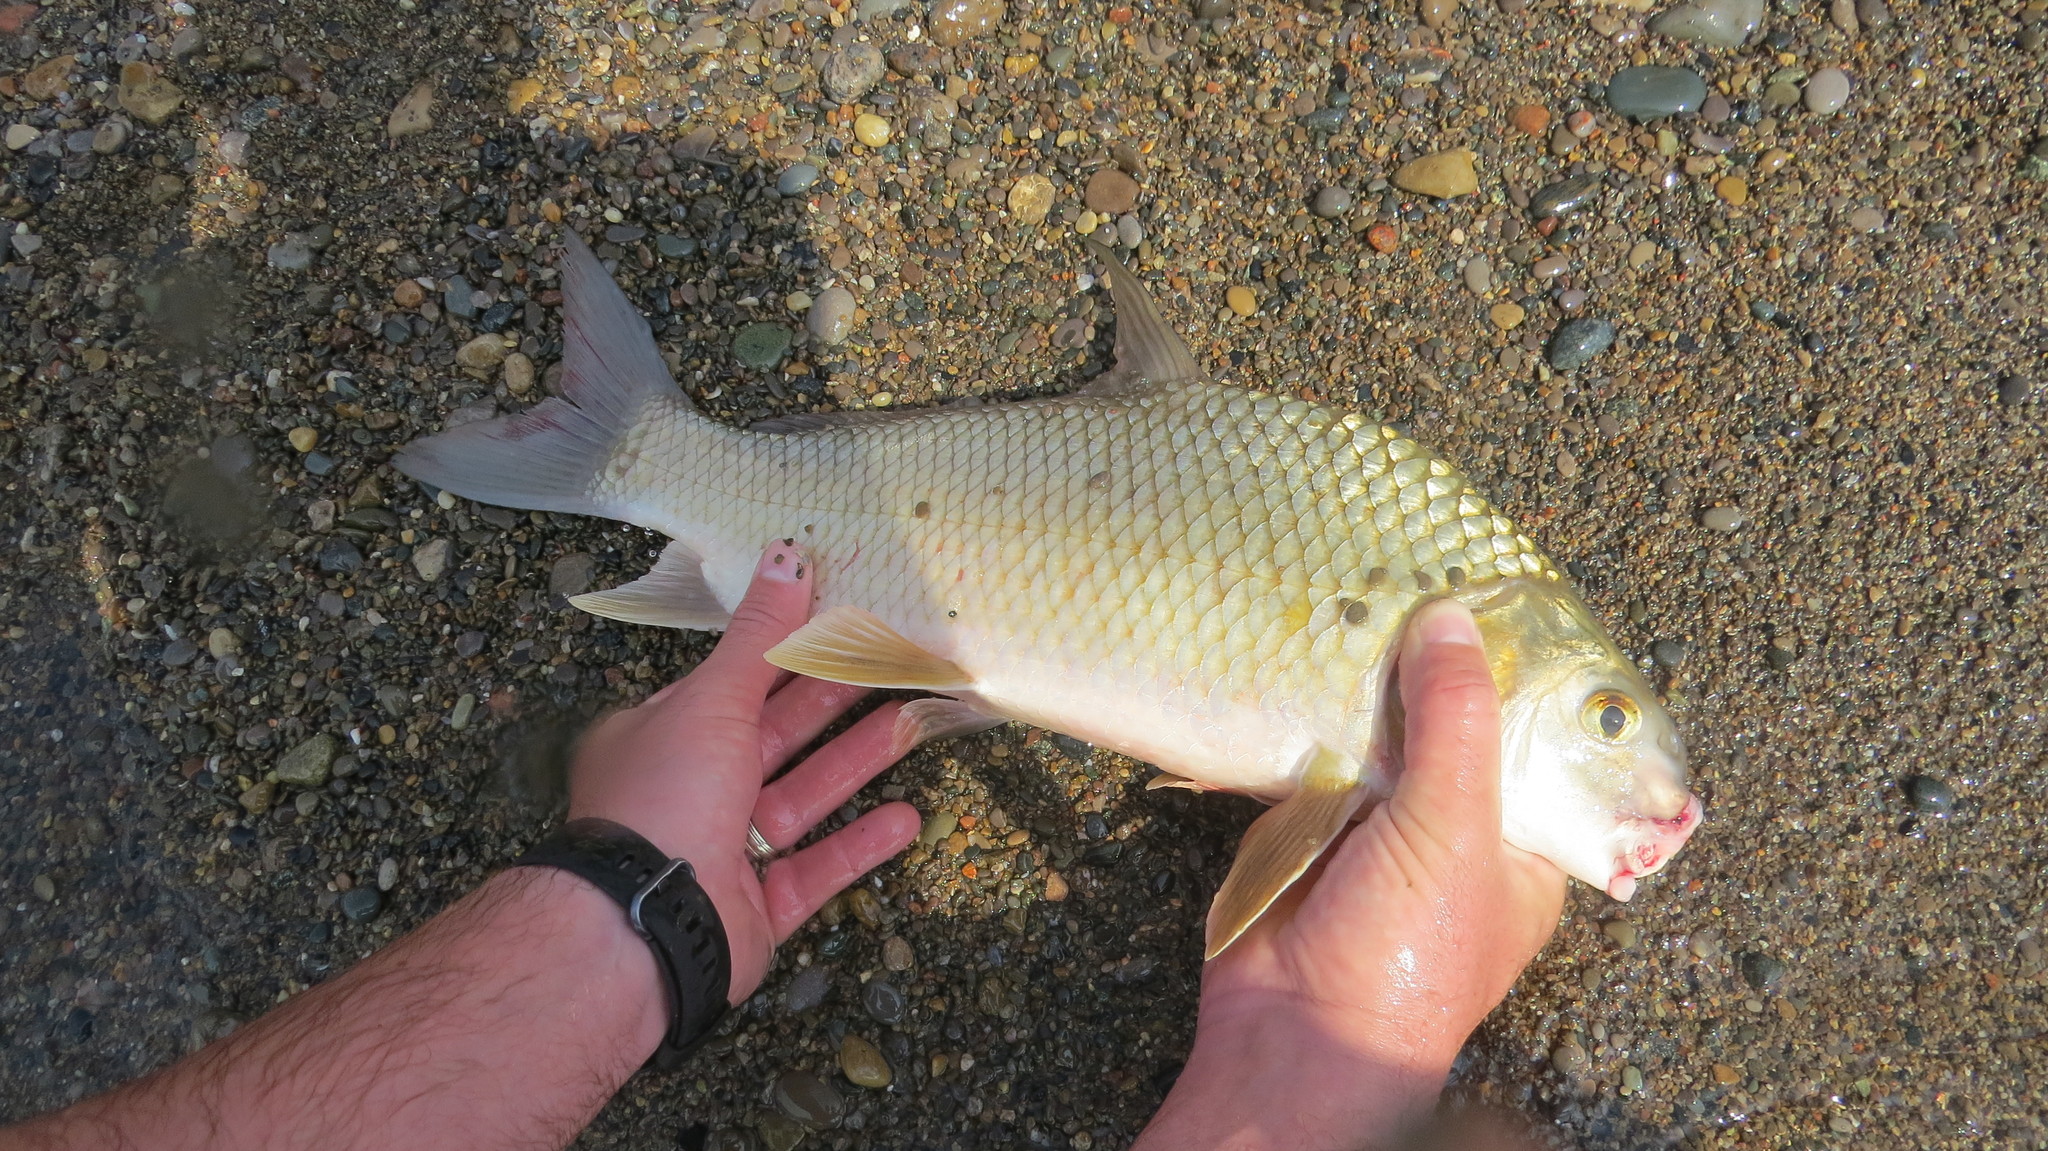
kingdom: Animalia
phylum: Chordata
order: Cypriniformes
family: Catostomidae
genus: Carpiodes
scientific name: Carpiodes cyprinus
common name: Quillback
